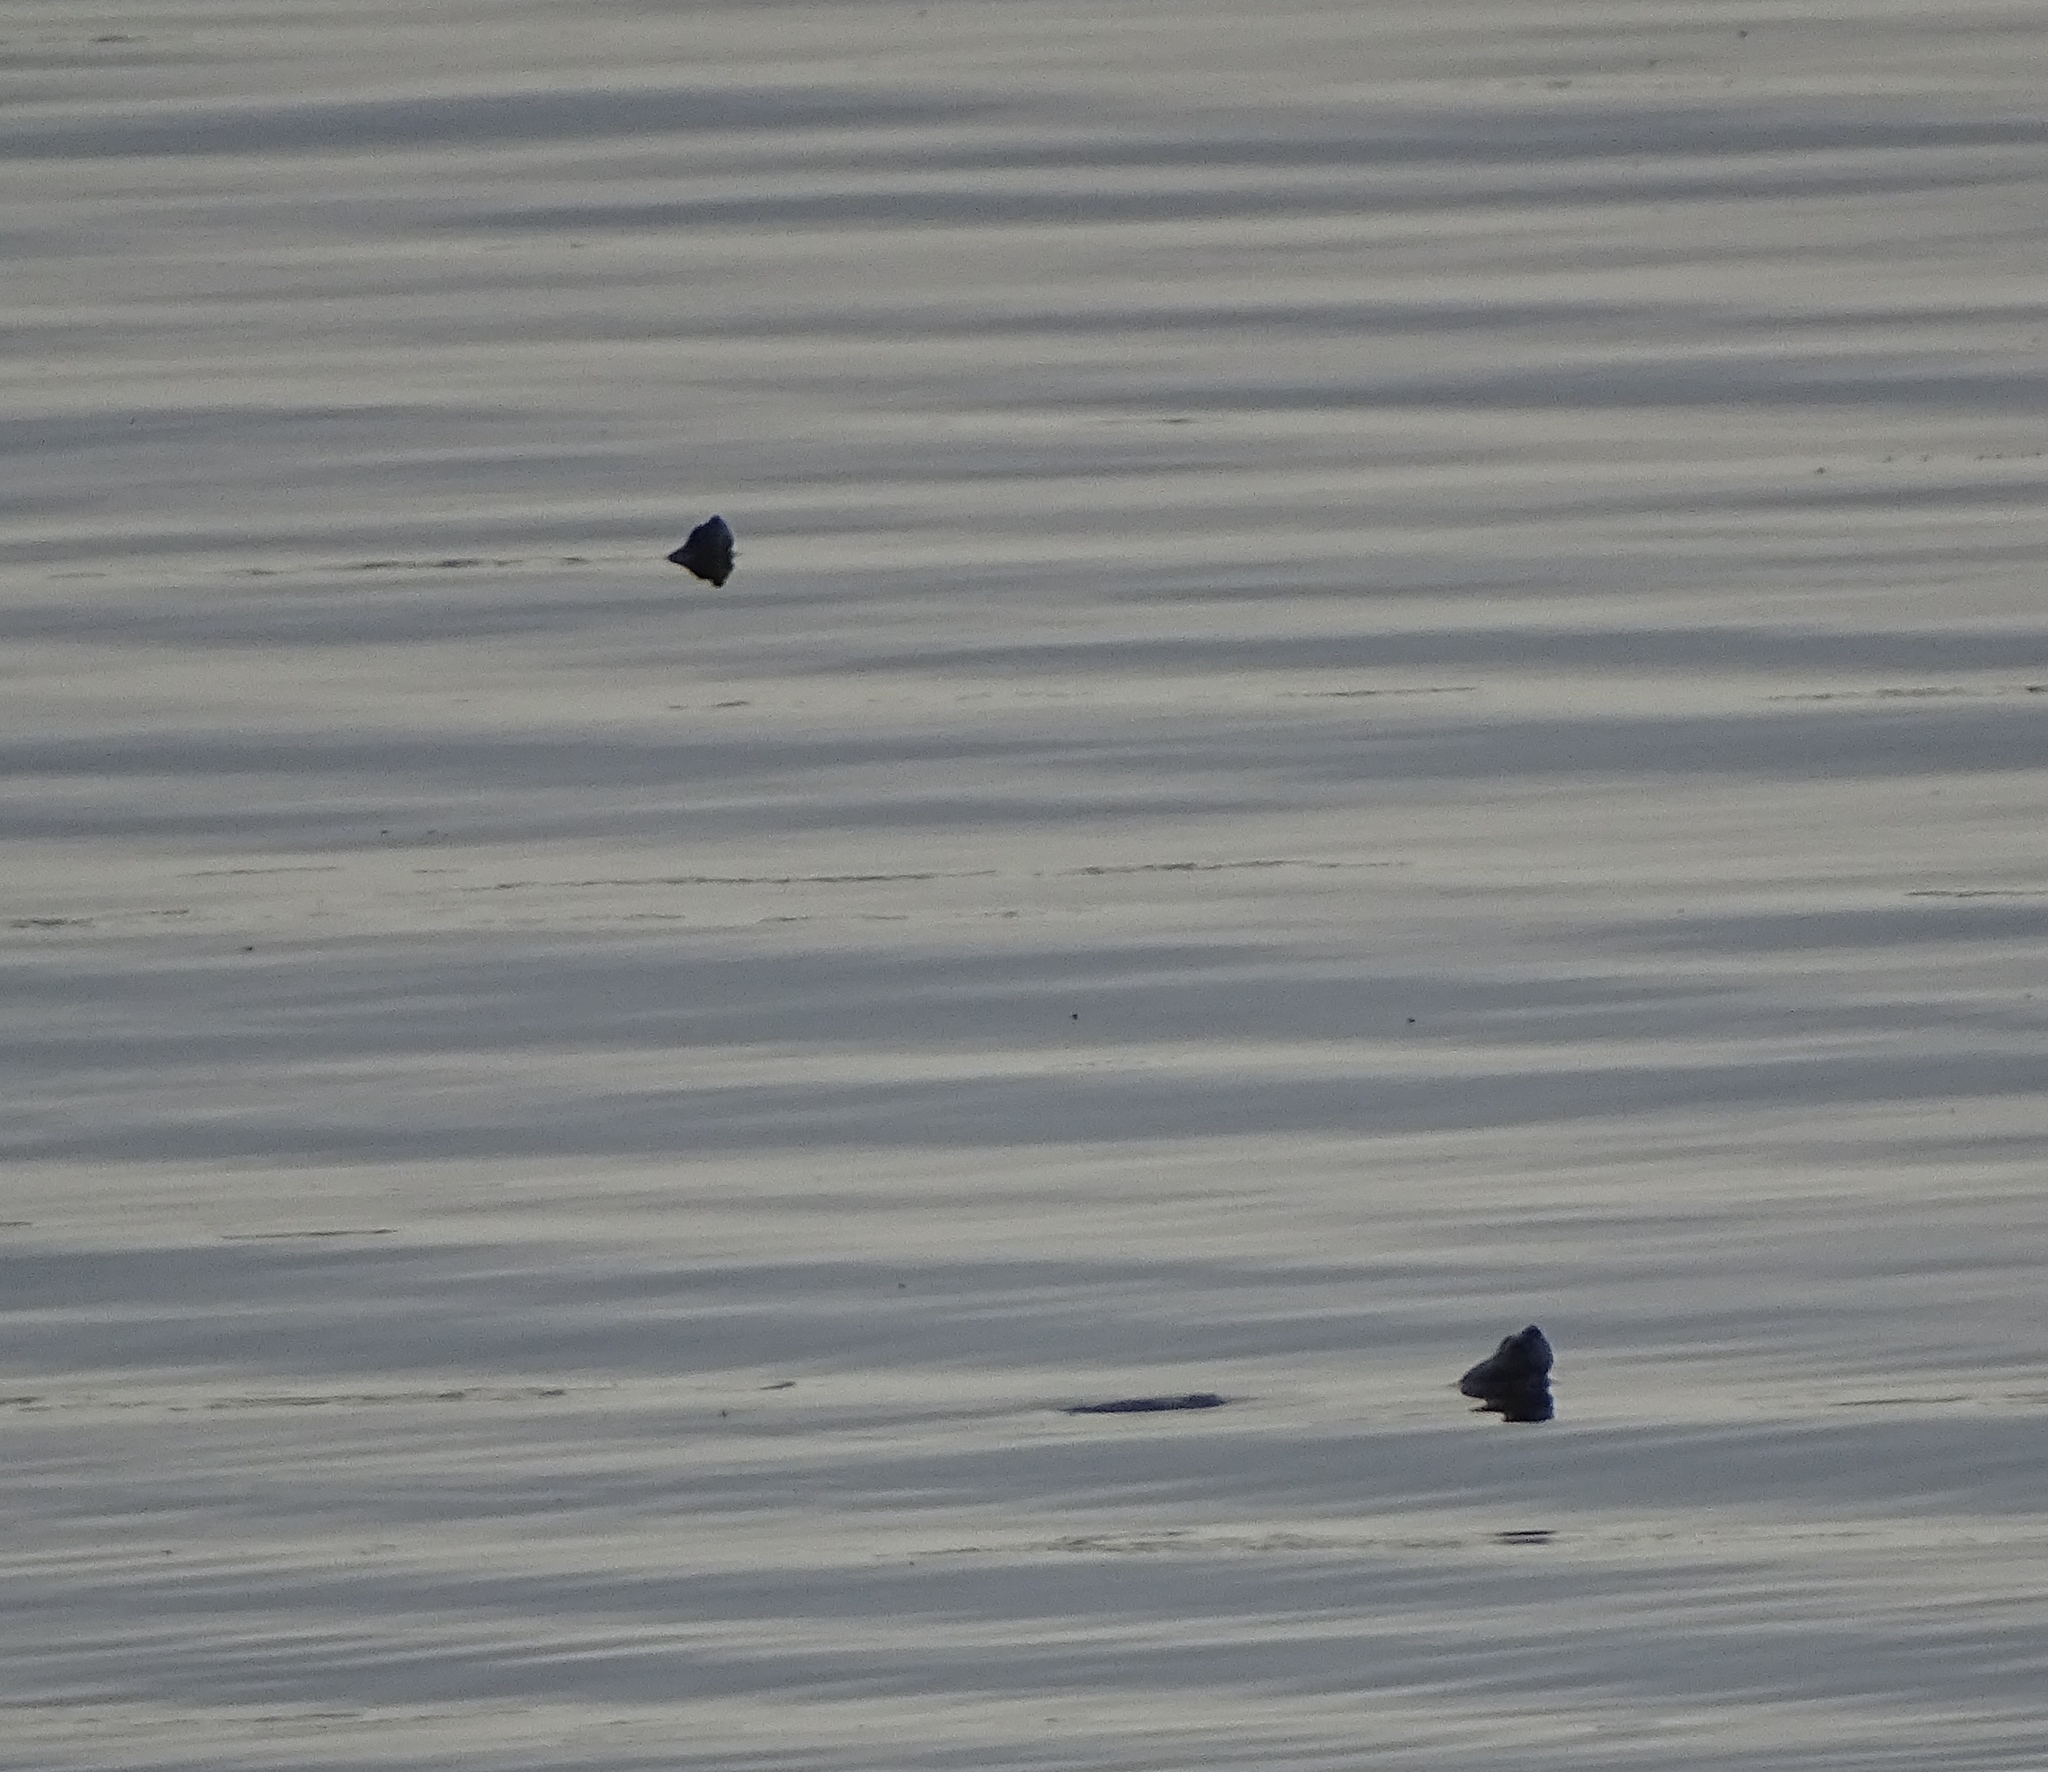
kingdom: Animalia
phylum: Chordata
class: Testudines
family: Emydidae
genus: Pseudemys
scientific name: Pseudemys rubriventris
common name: American red-bellied turtle
